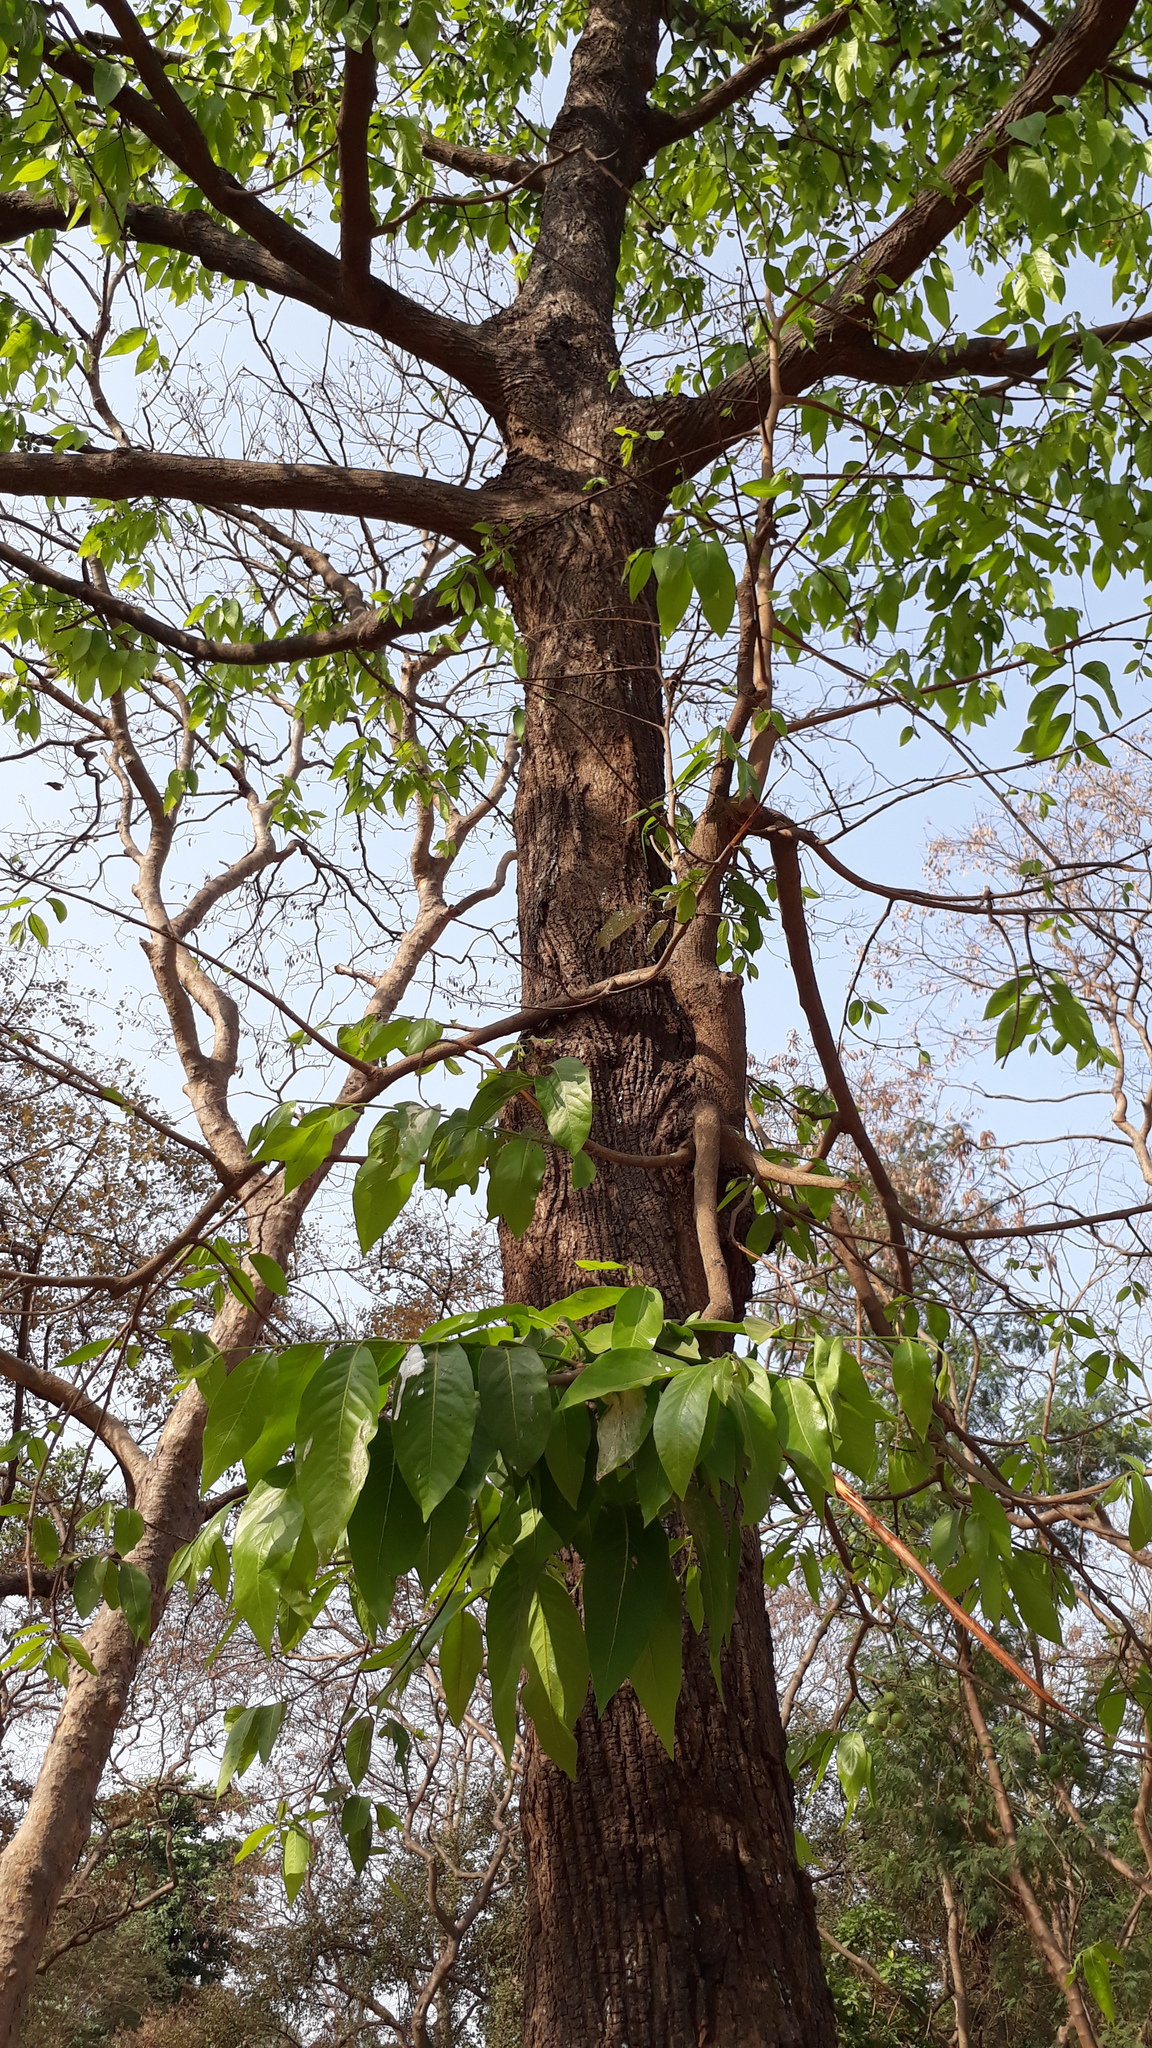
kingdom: Plantae
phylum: Tracheophyta
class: Magnoliopsida
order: Magnoliales
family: Annonaceae
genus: Miliusa
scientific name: Miliusa tomentosa
